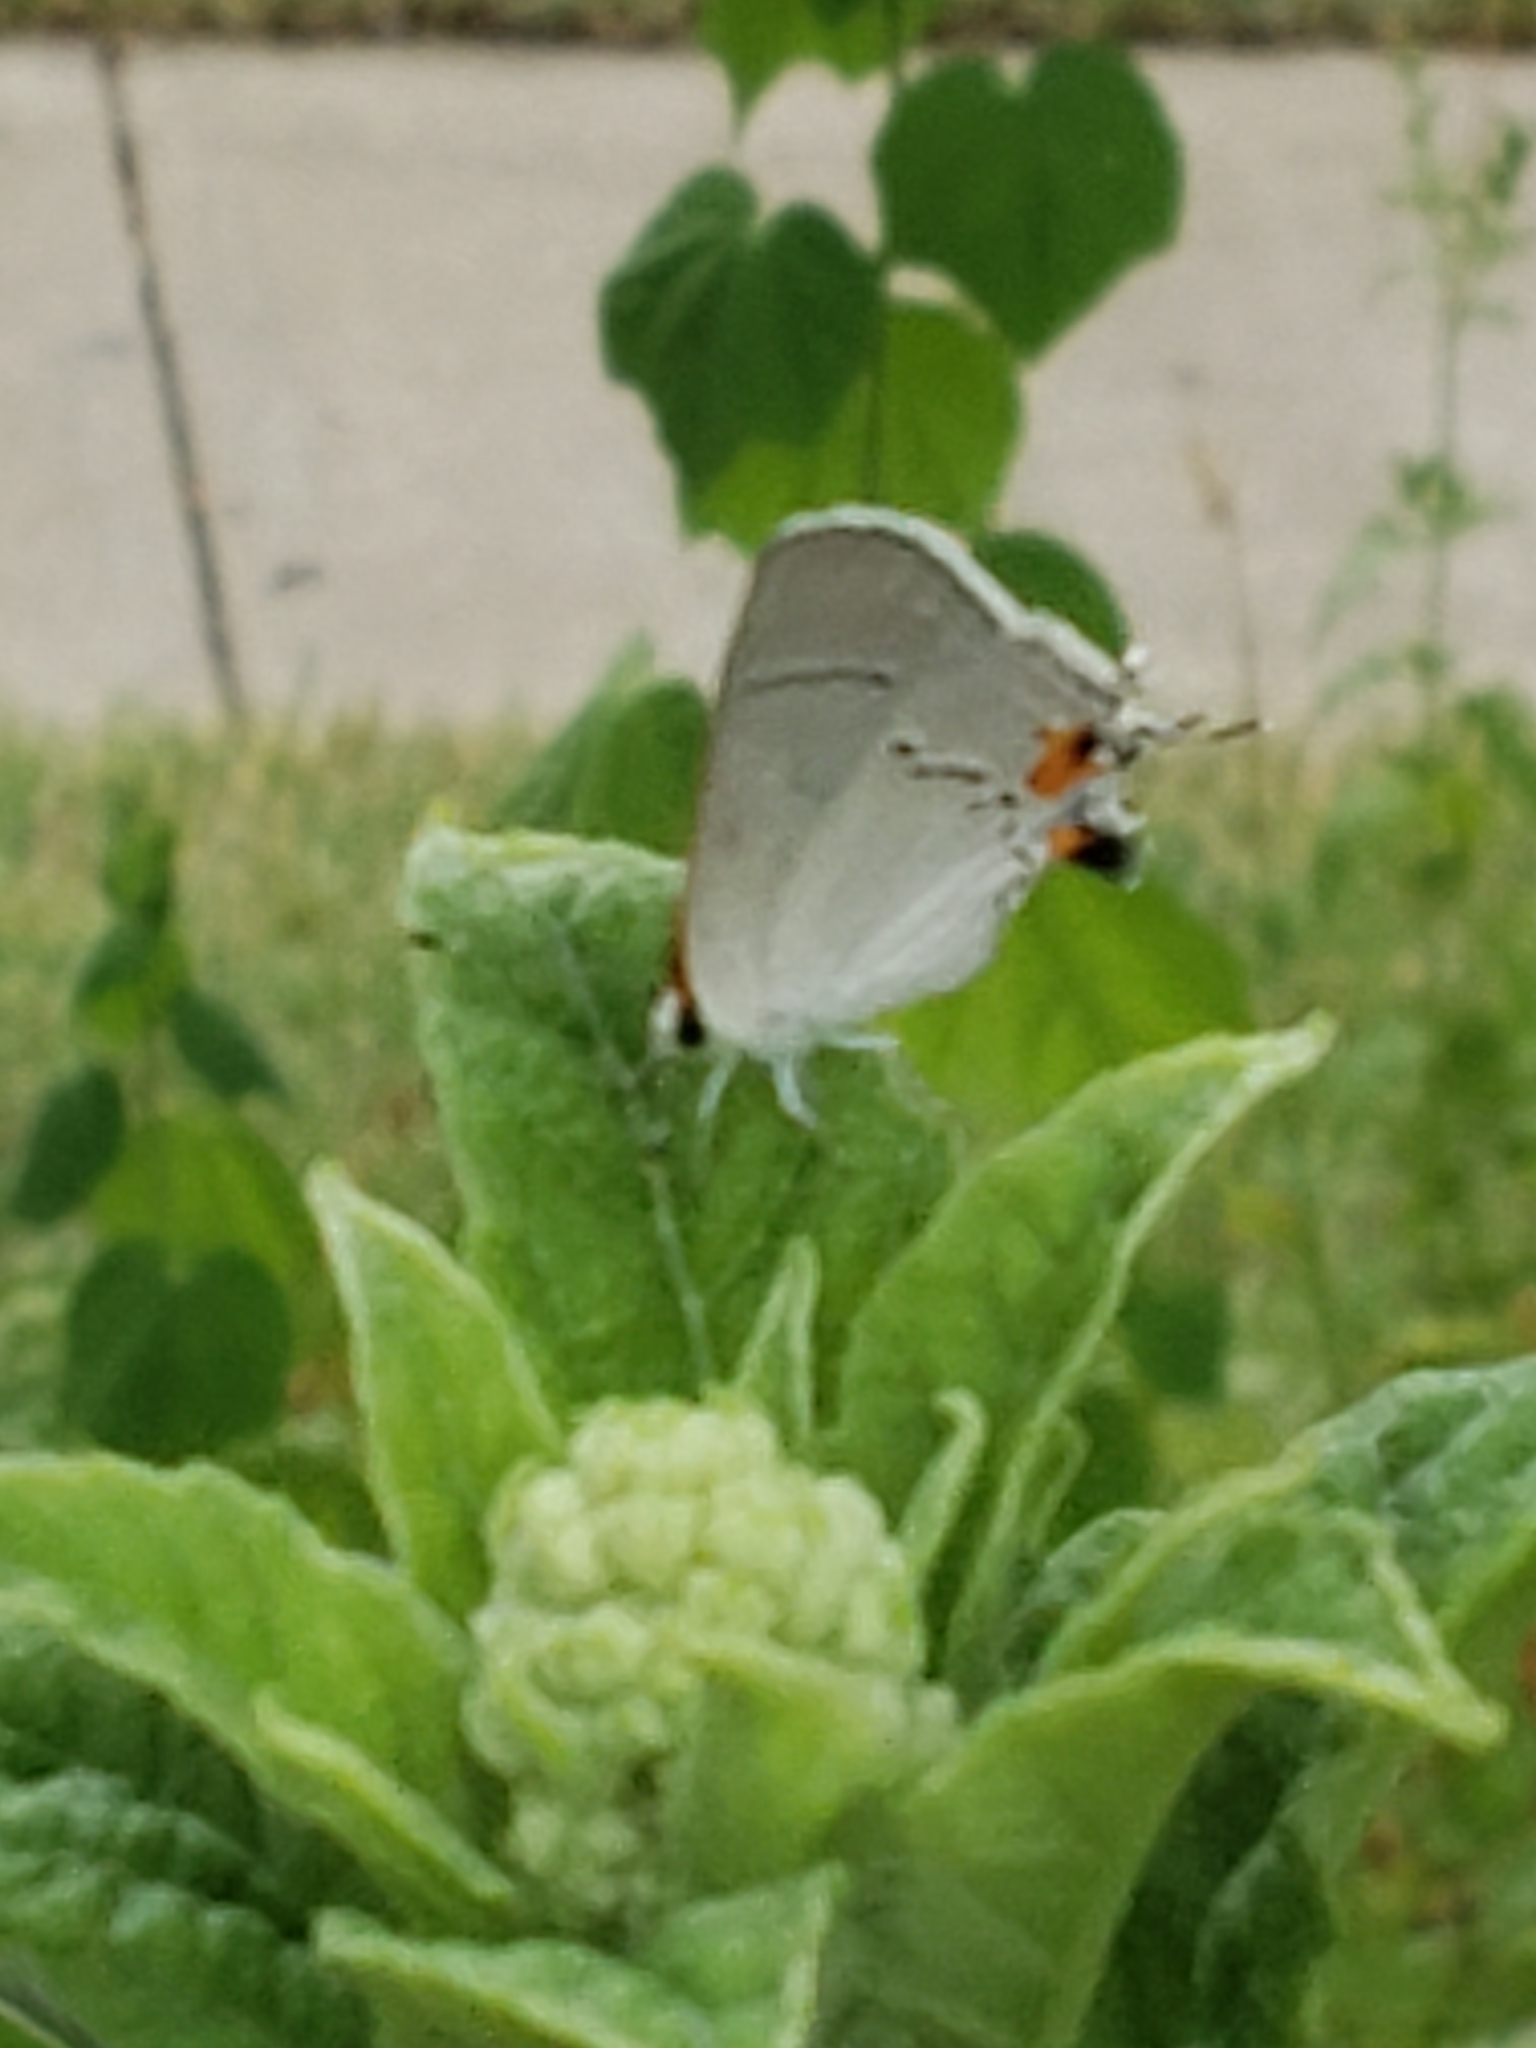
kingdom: Animalia
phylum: Arthropoda
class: Insecta
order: Lepidoptera
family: Lycaenidae
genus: Strymon
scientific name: Strymon melinus
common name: Gray hairstreak
